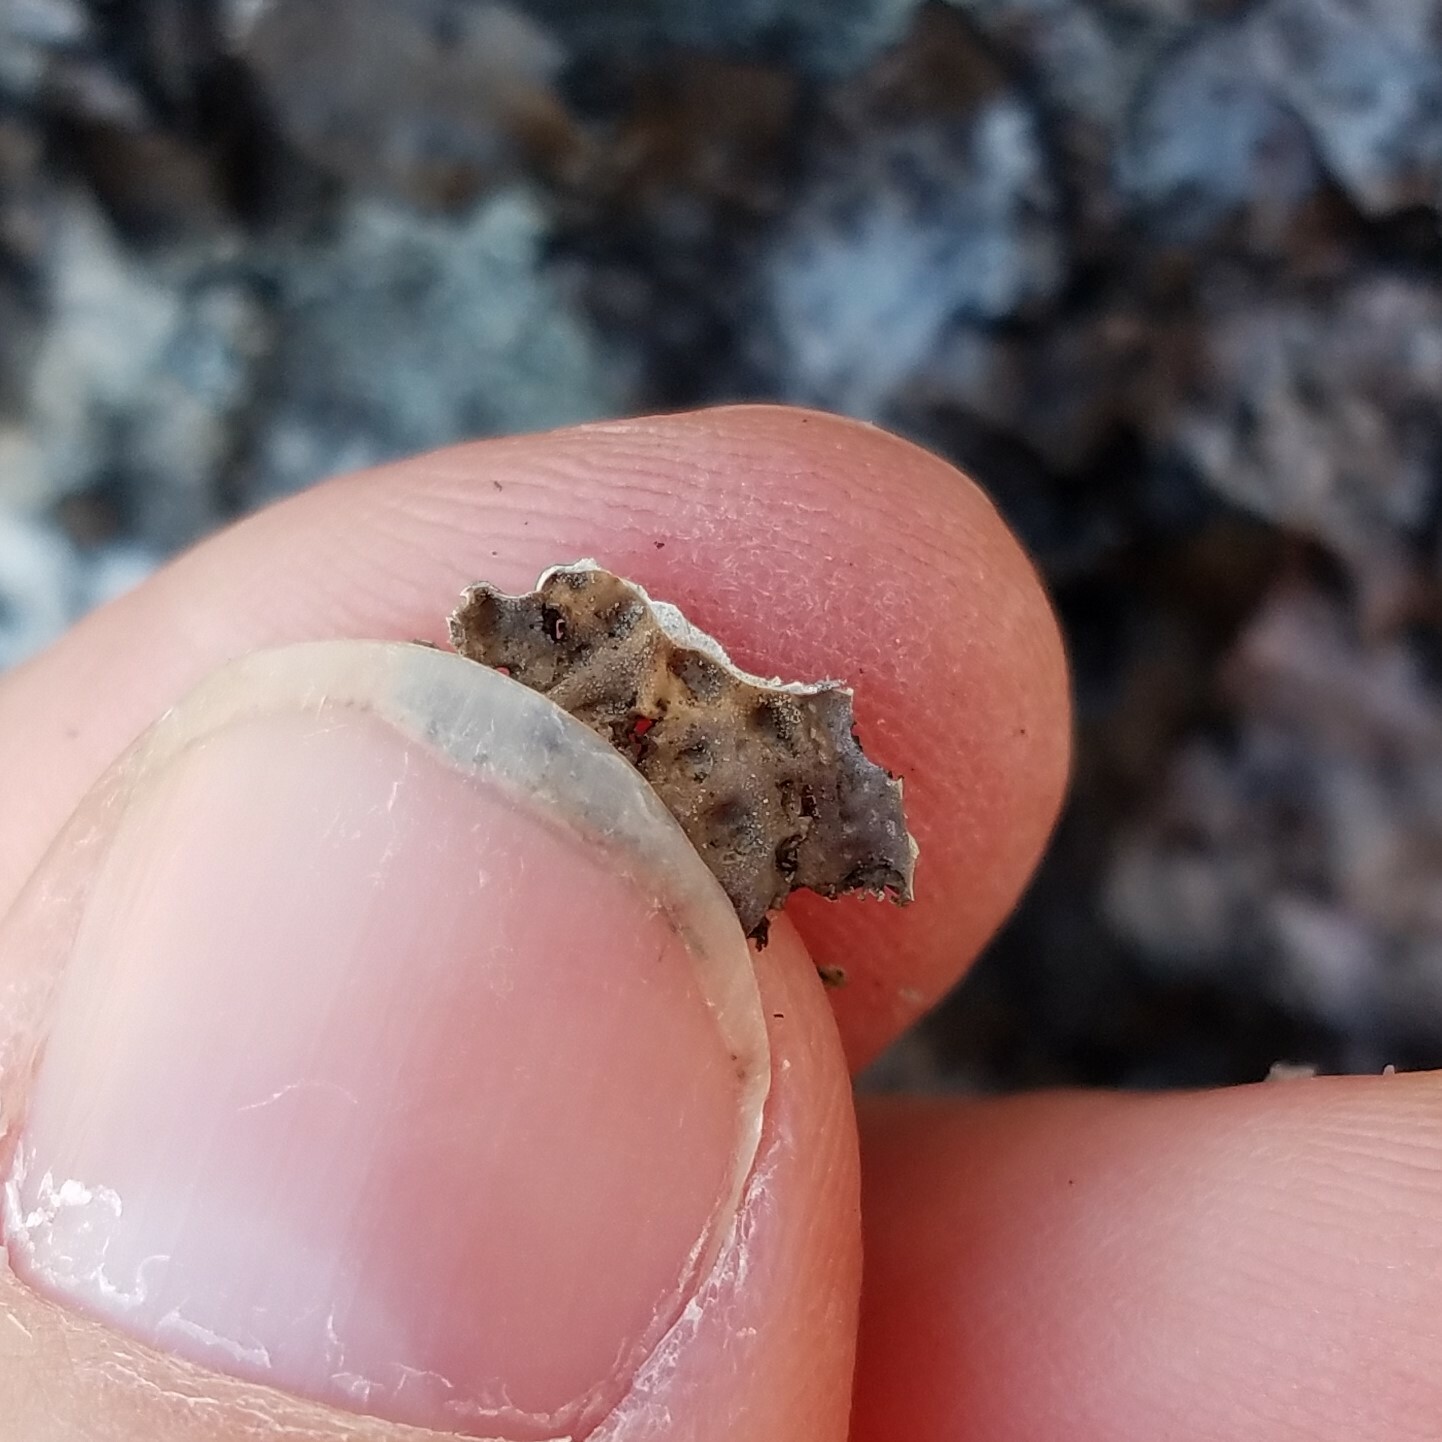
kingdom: Fungi
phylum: Ascomycota
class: Lecanoromycetes
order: Umbilicariales
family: Umbilicariaceae
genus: Lasallia
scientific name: Lasallia papulosa
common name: Common toadskin lichen
